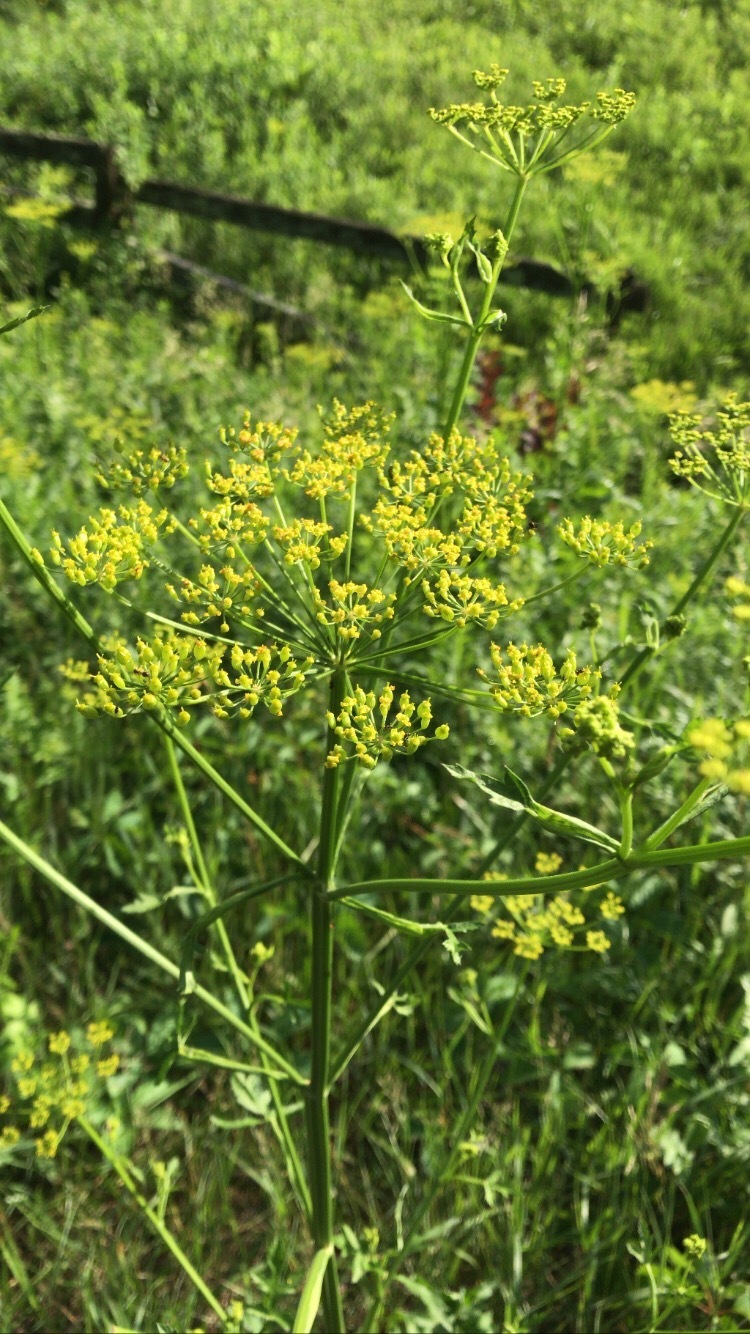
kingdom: Plantae
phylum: Tracheophyta
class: Magnoliopsida
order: Apiales
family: Apiaceae
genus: Pastinaca
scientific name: Pastinaca sativa
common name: Wild parsnip
